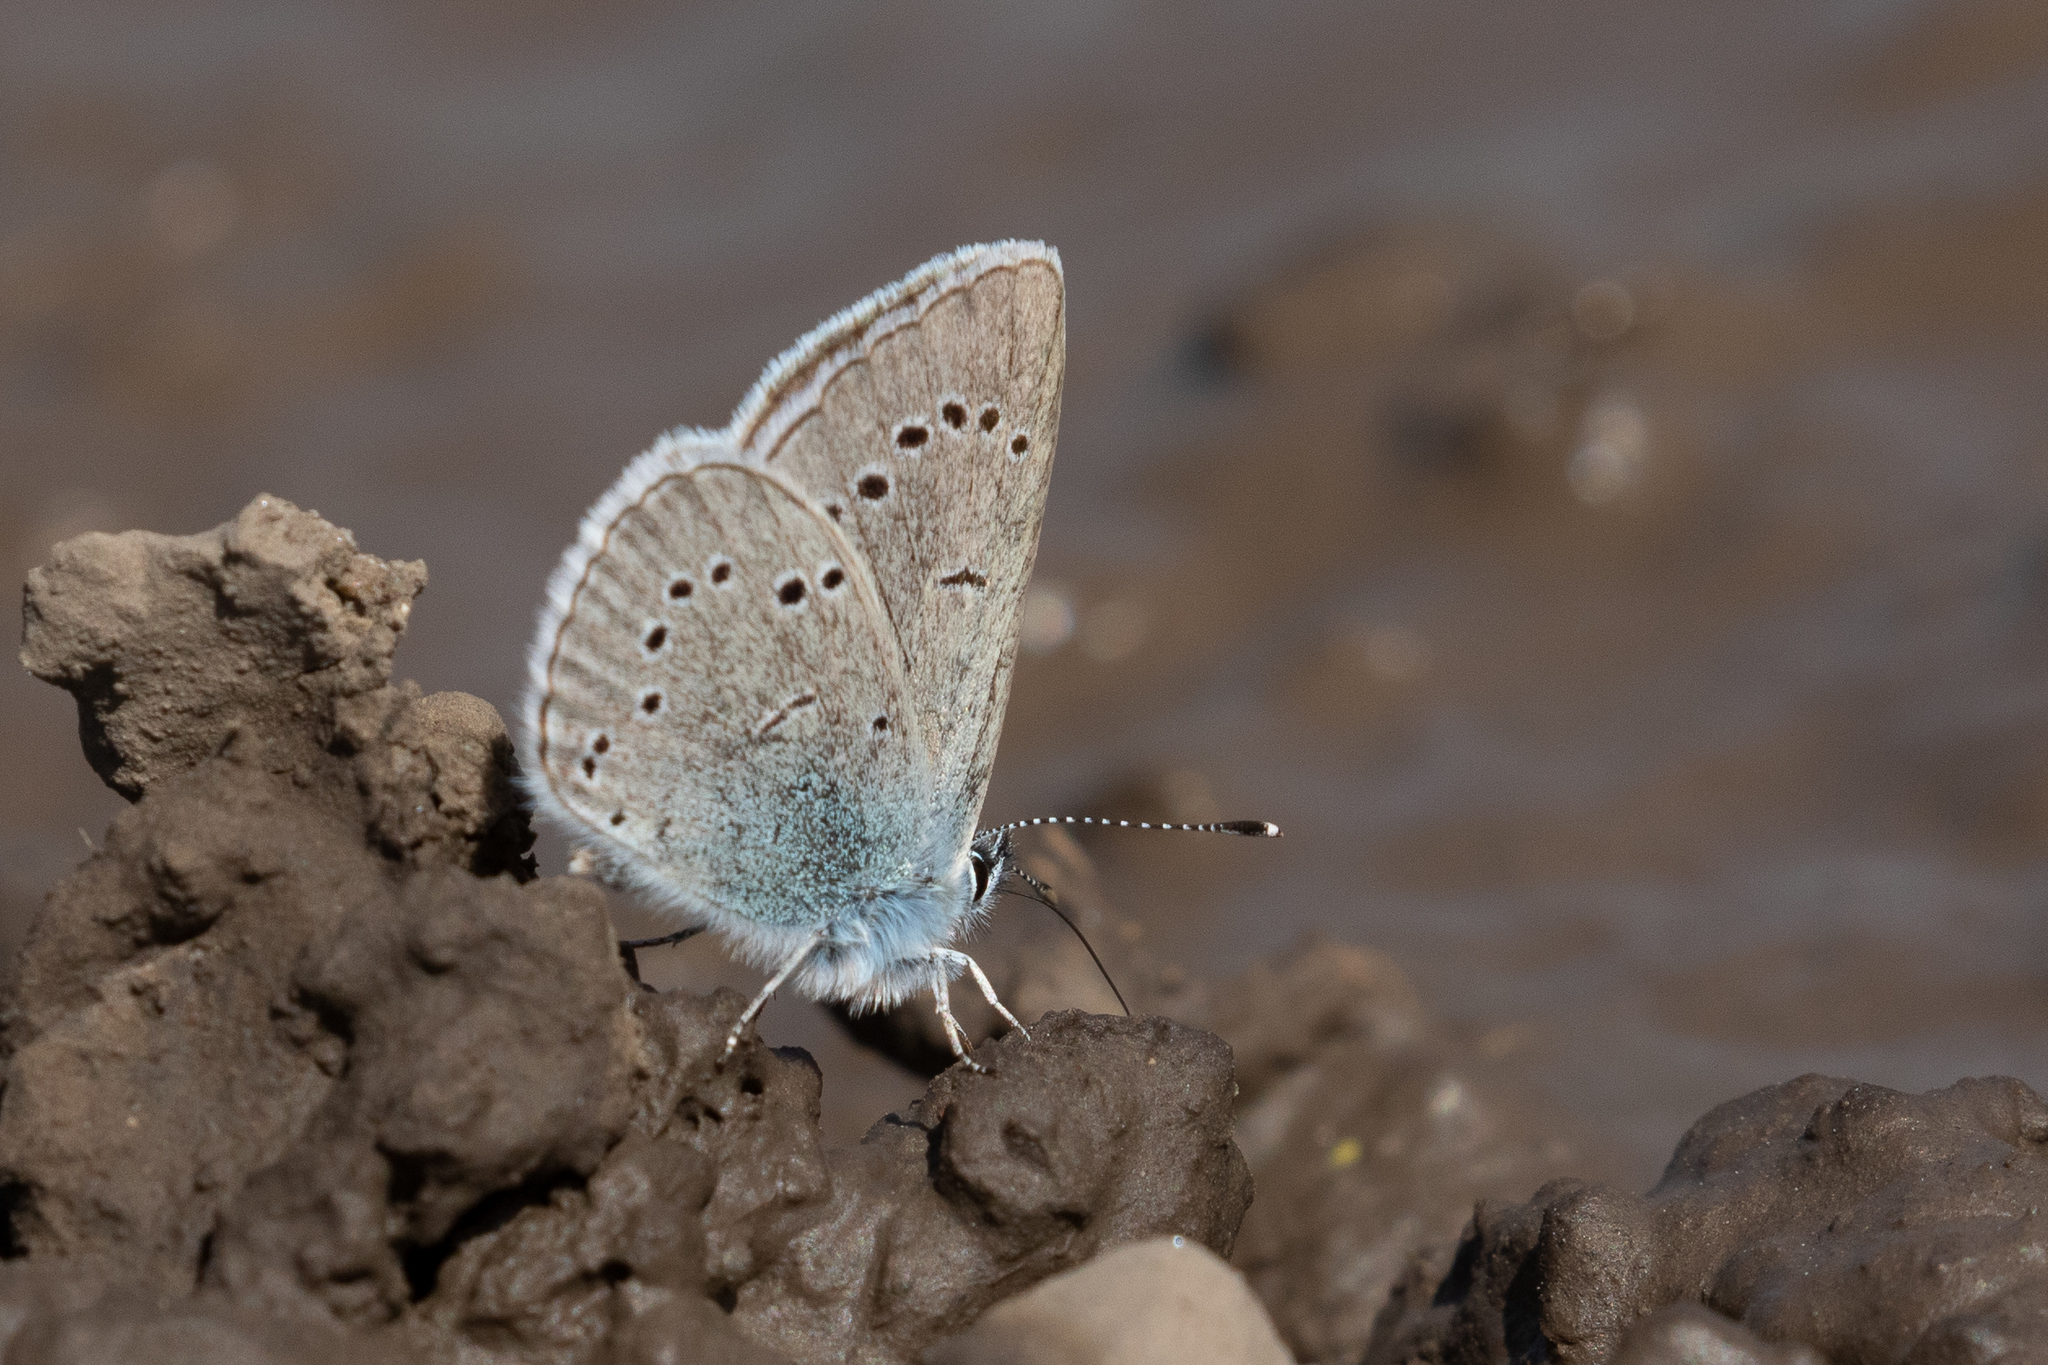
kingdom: Animalia
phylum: Arthropoda
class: Insecta
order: Lepidoptera
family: Lycaenidae
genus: Glaucopsyche
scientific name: Glaucopsyche lygdamus
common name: Silvery blue
